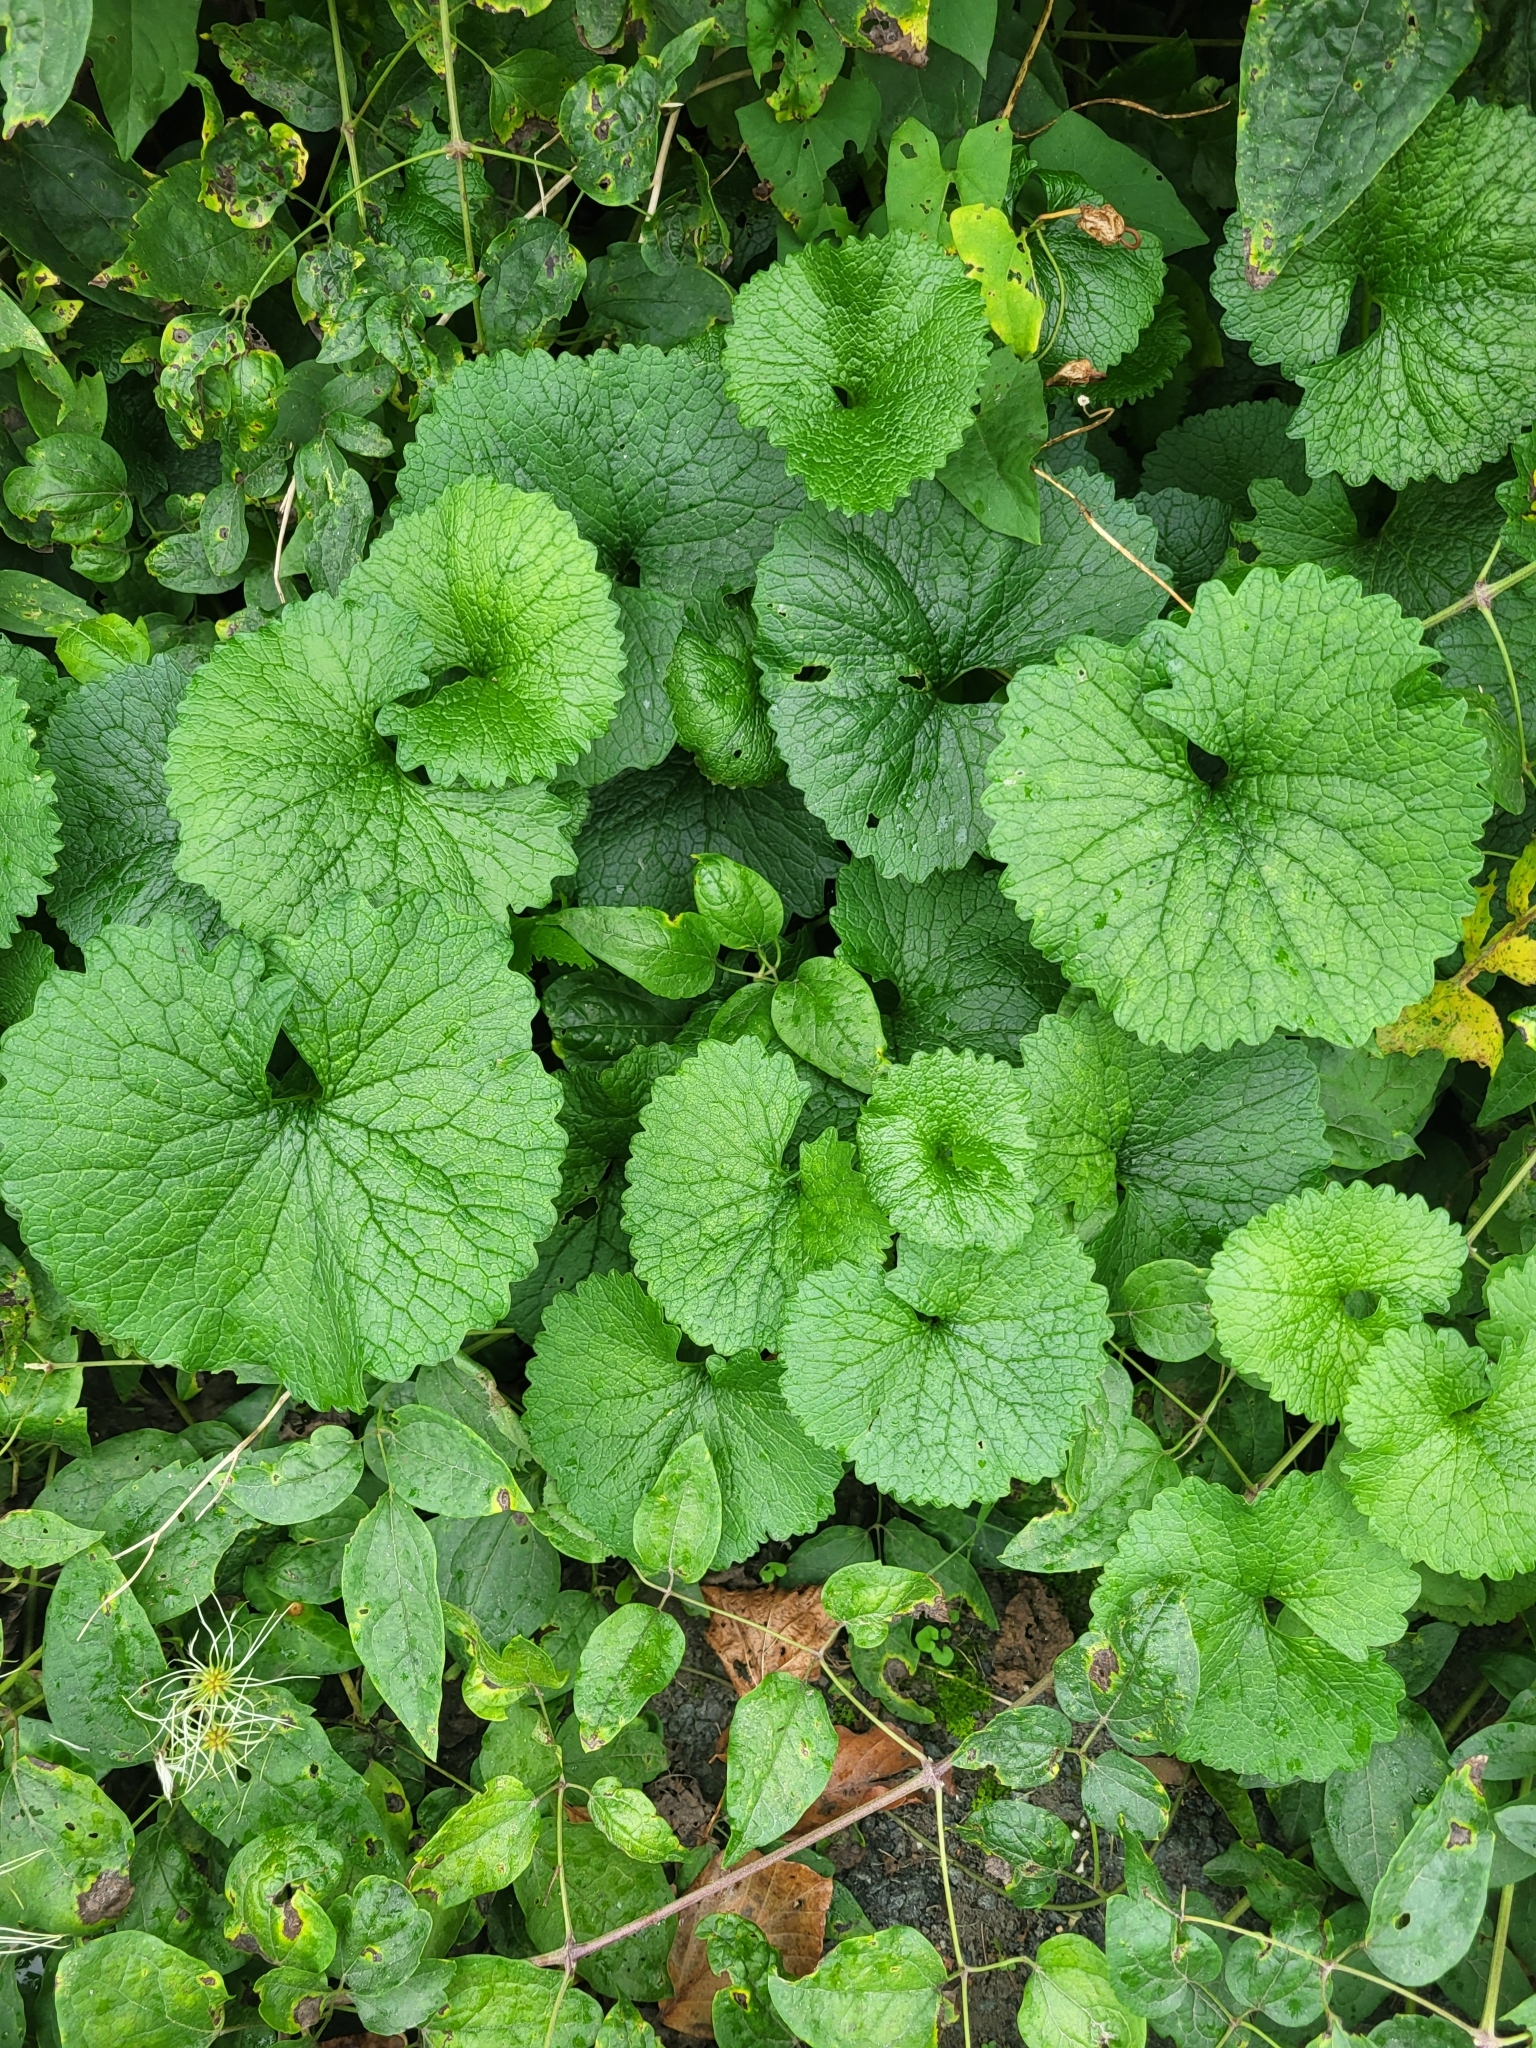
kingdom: Plantae
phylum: Tracheophyta
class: Magnoliopsida
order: Brassicales
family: Brassicaceae
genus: Alliaria
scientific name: Alliaria petiolata
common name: Garlic mustard
